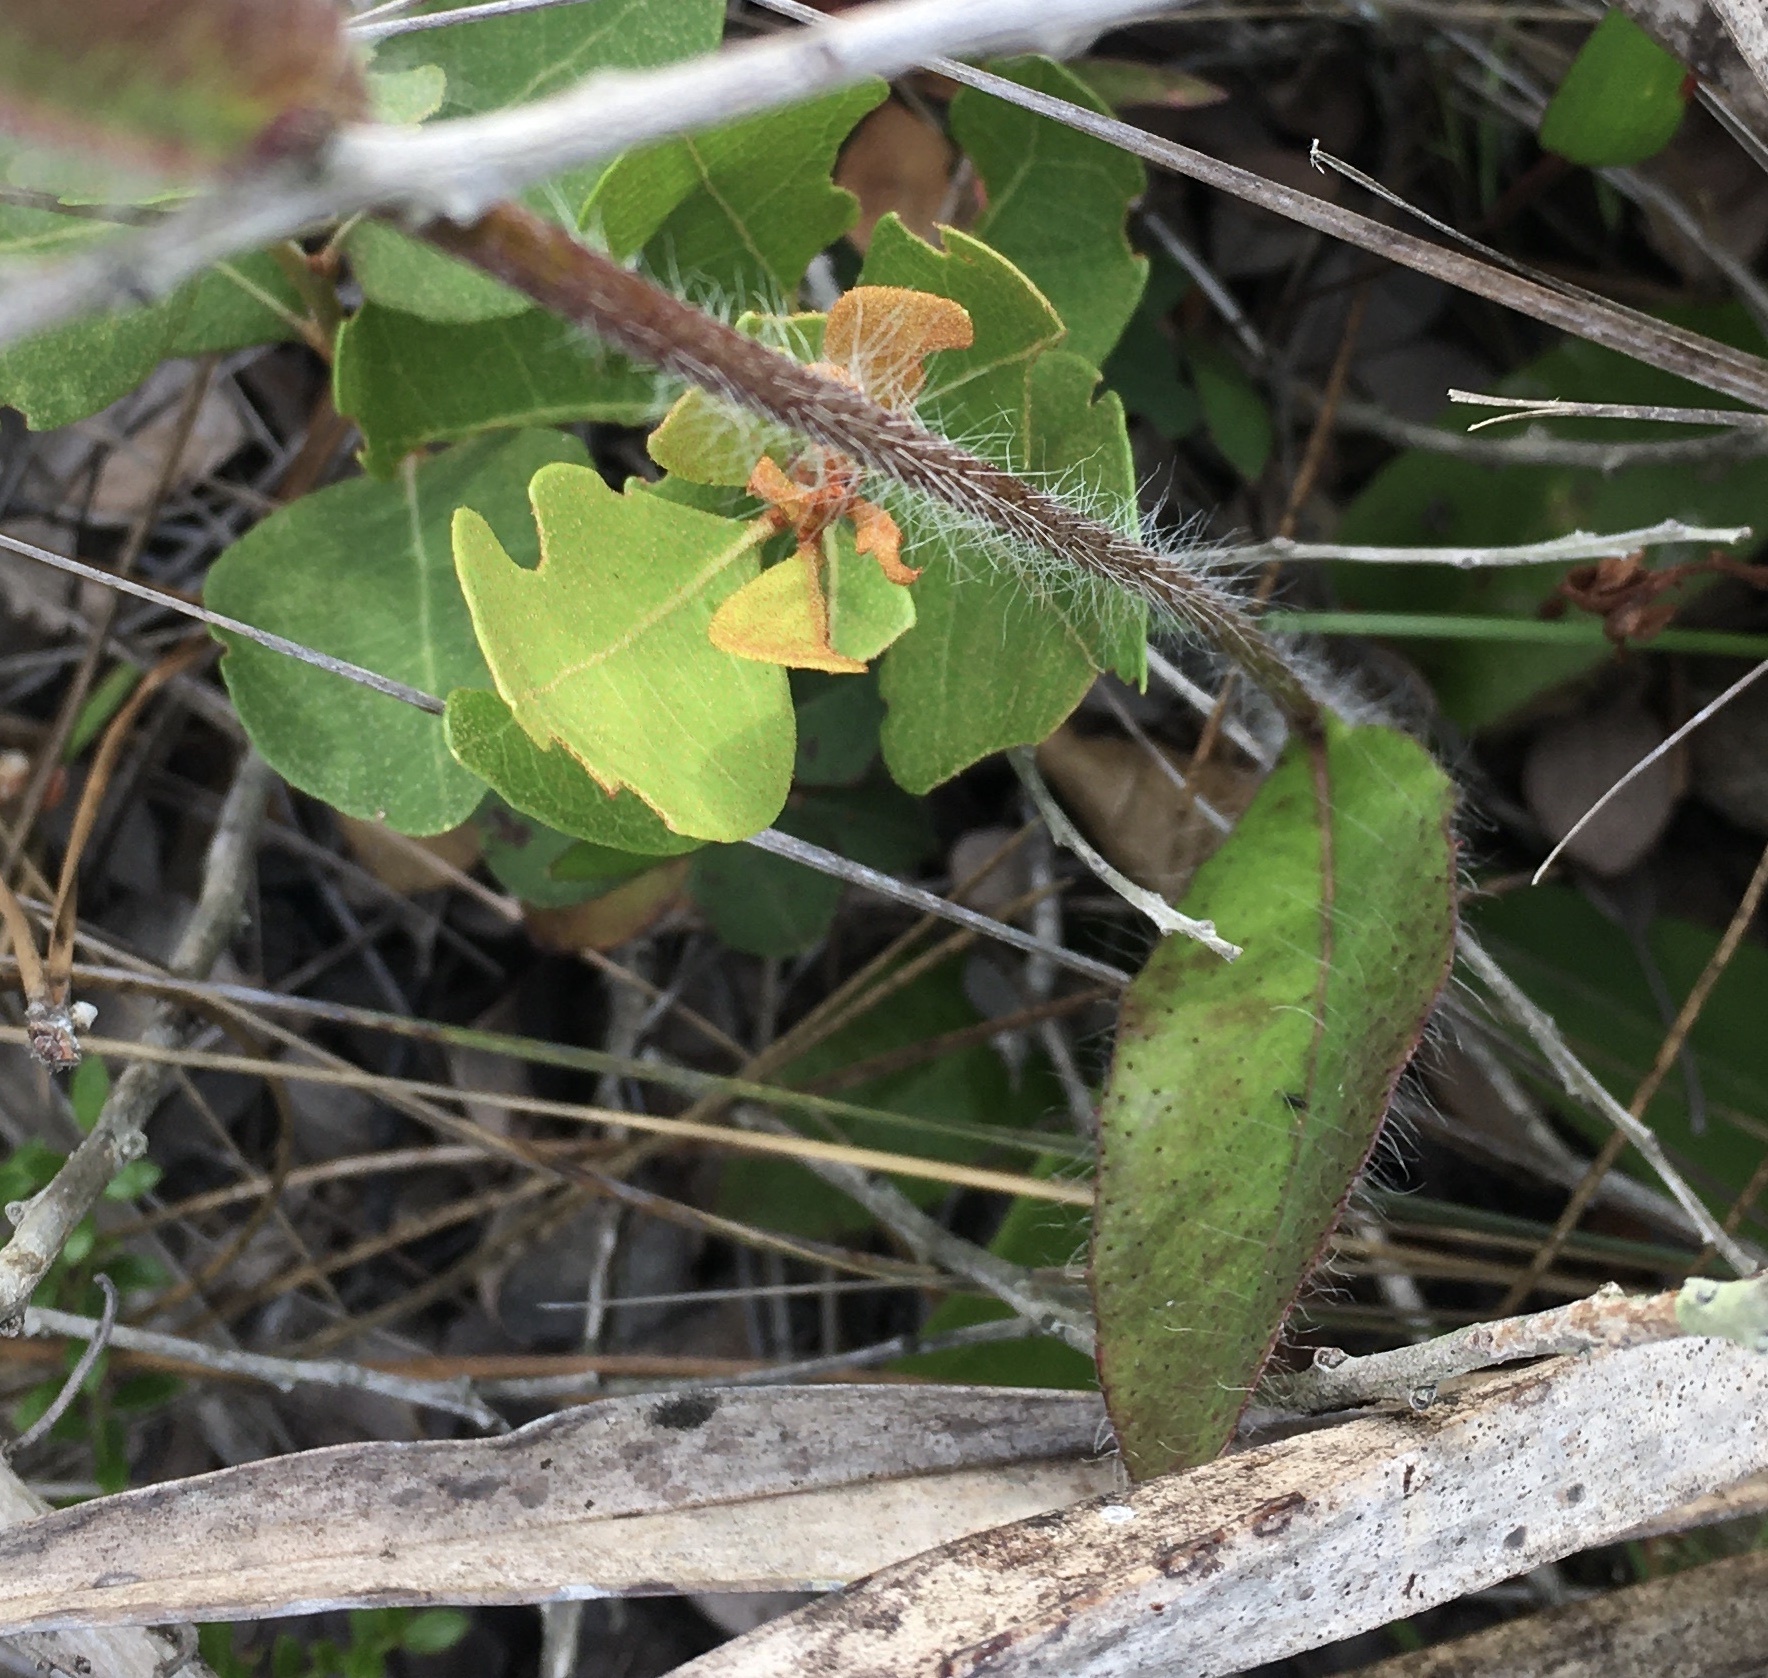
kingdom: Plantae
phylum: Tracheophyta
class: Magnoliopsida
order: Asterales
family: Asteraceae
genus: Hieracium
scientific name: Hieracium megacephalum
